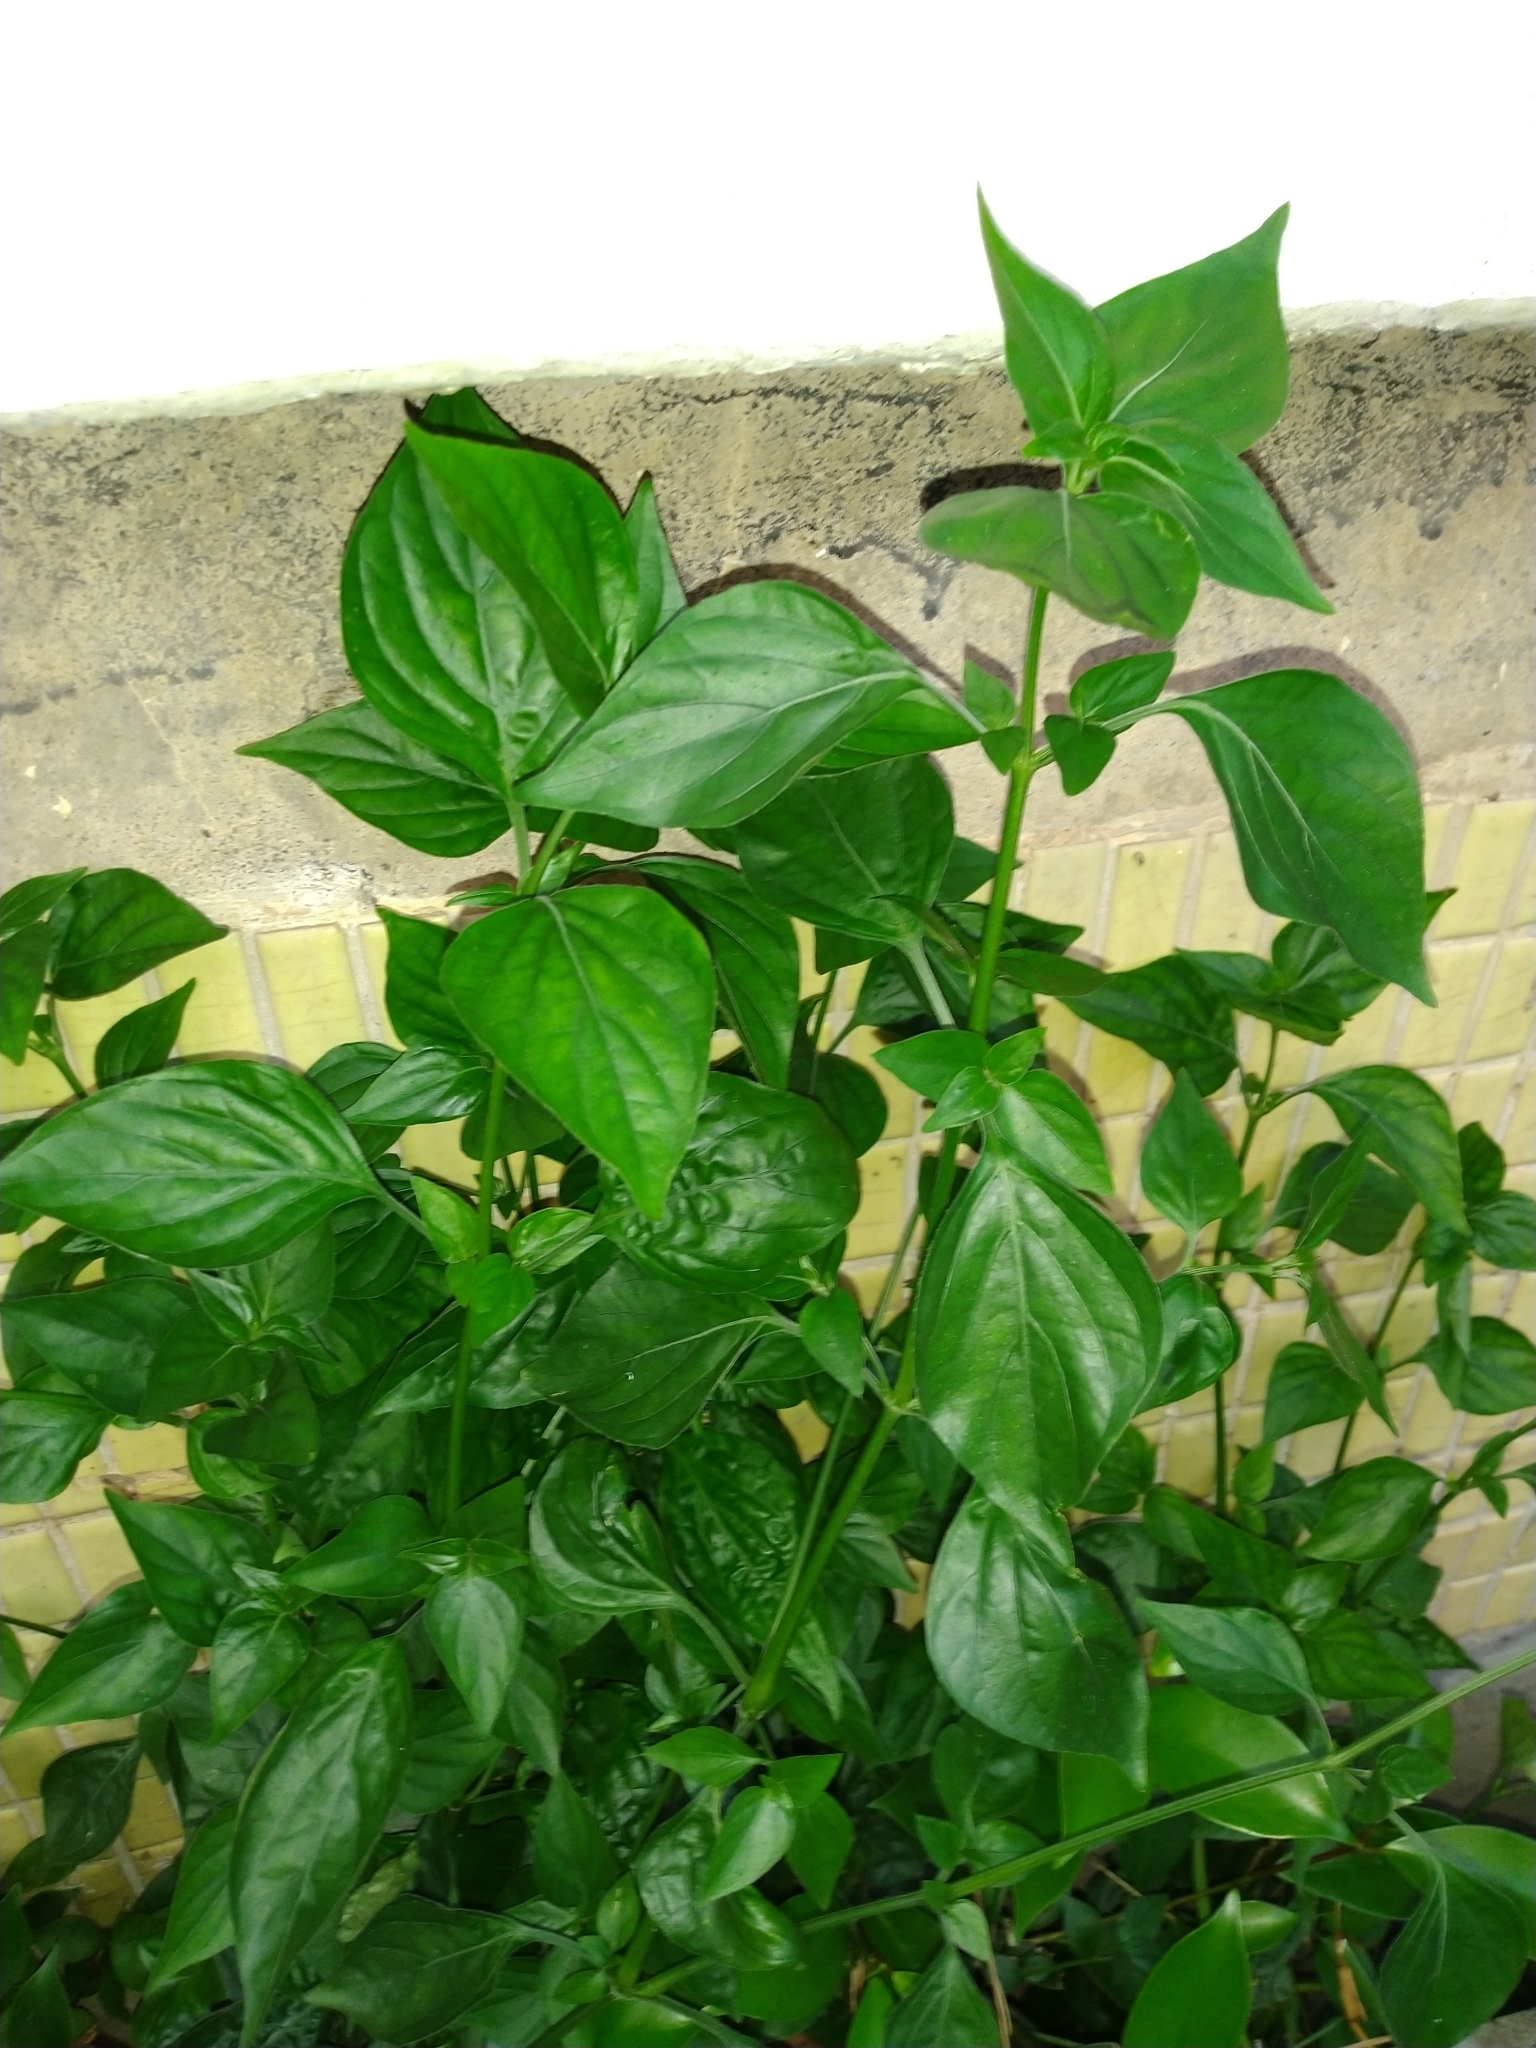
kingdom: Plantae
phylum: Tracheophyta
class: Magnoliopsida
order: Lamiales
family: Acanthaceae
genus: Dicliptera
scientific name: Dicliptera chinensis
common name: Chinese foldwing
